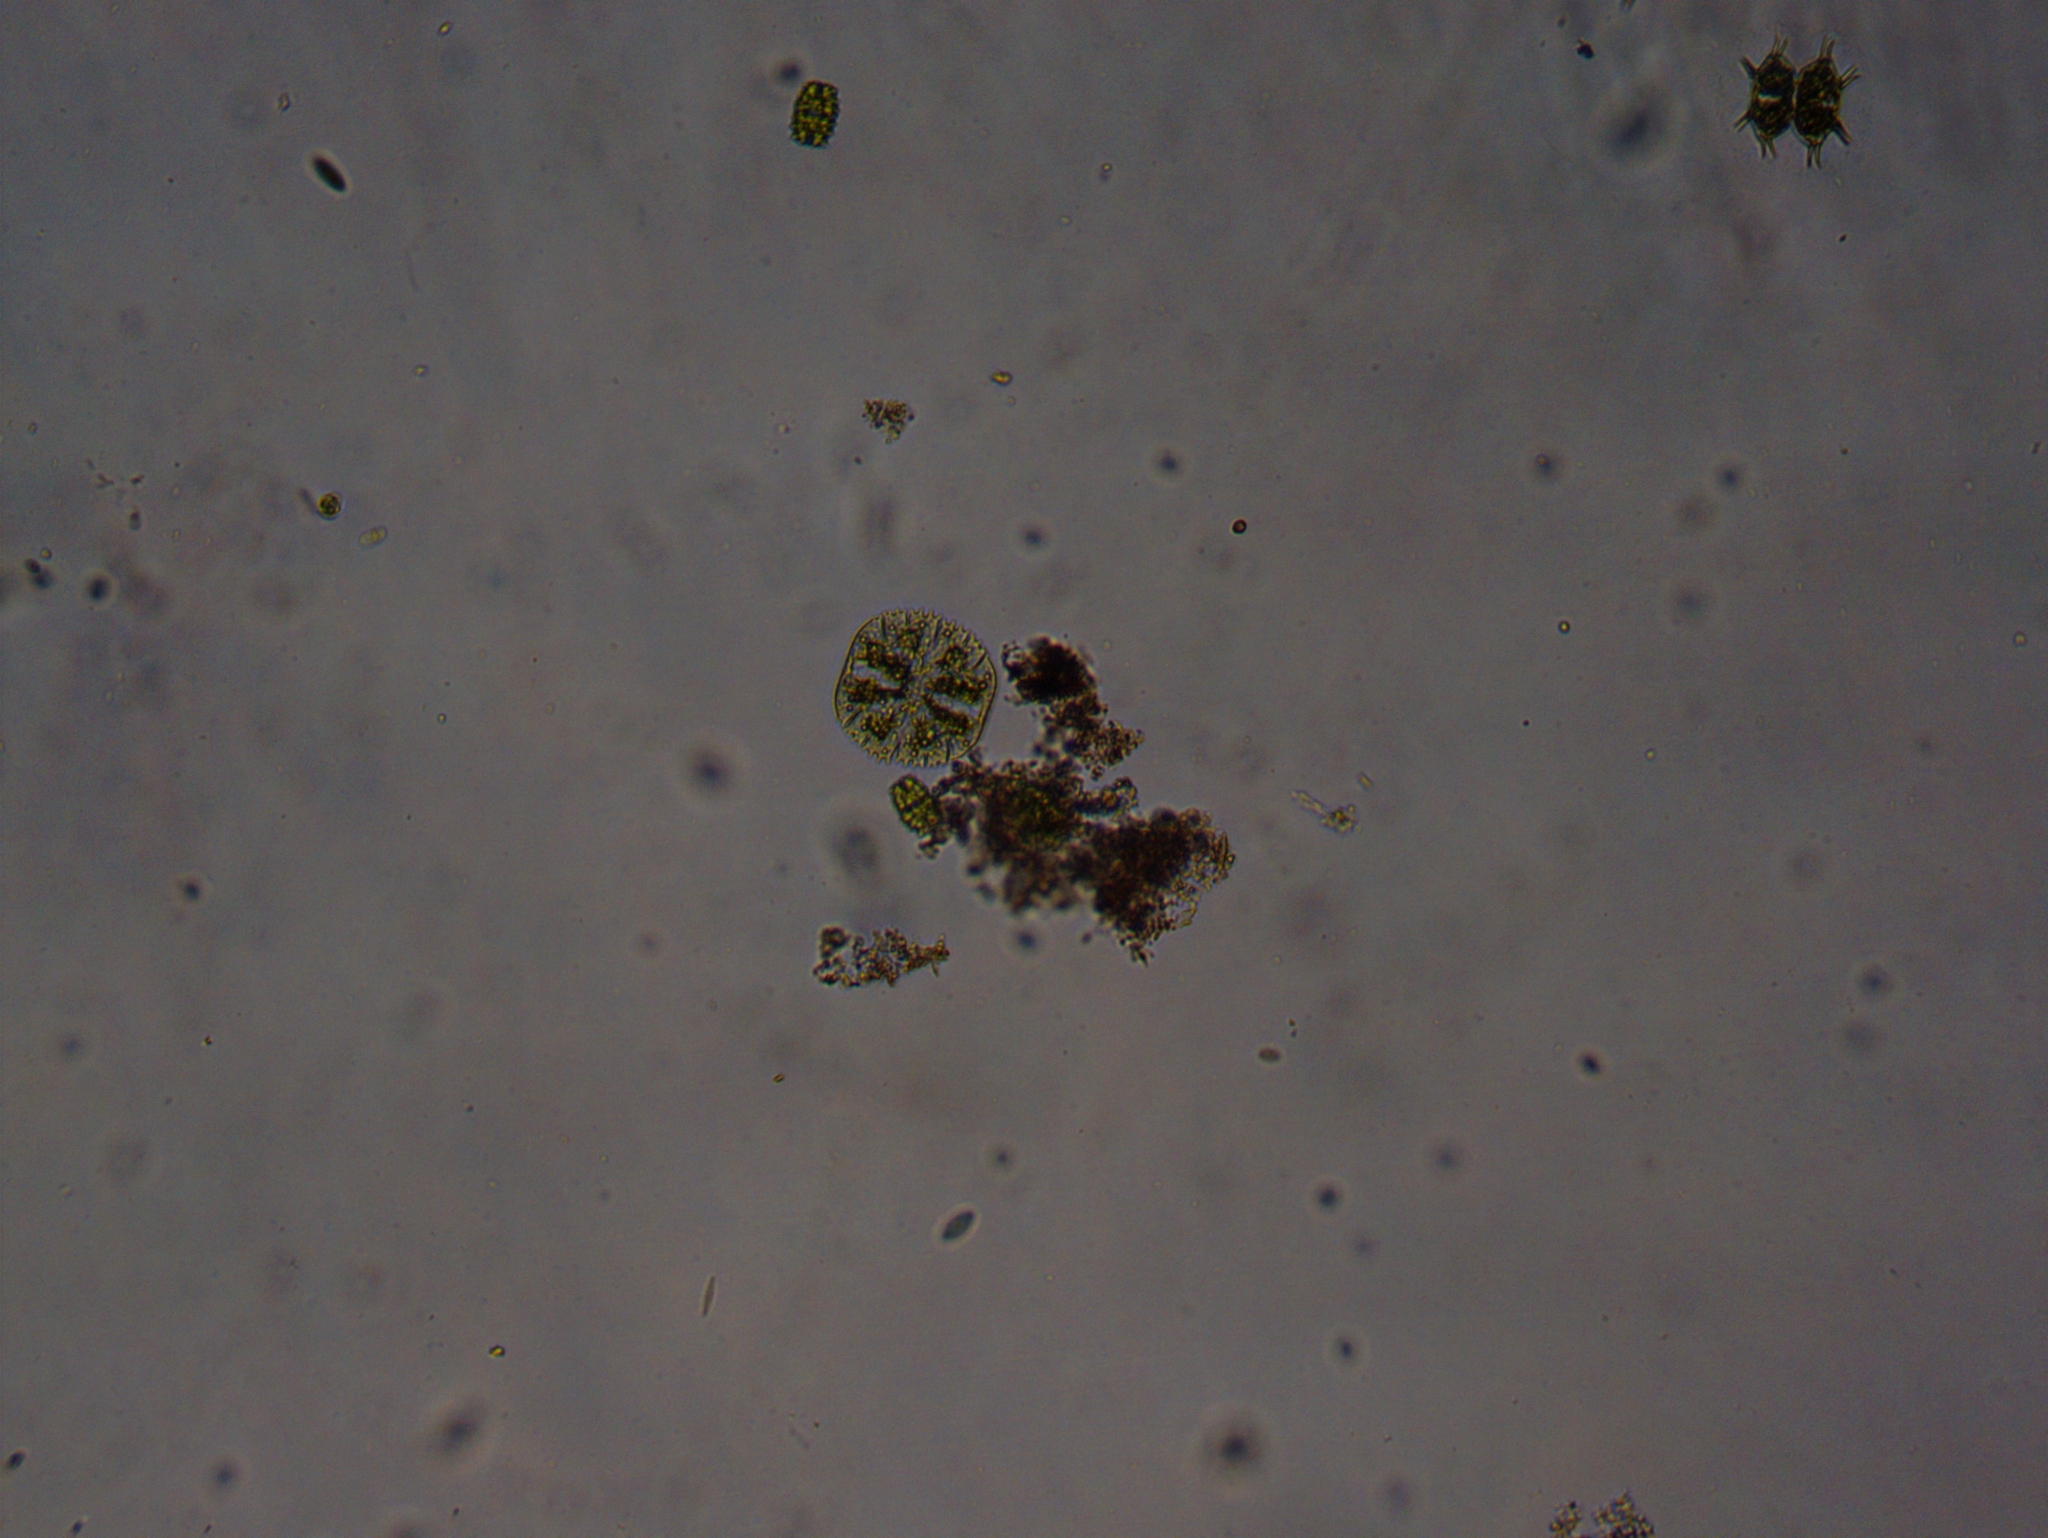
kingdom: Plantae
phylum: Charophyta
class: Conjugatophyceae
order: Desmidiales
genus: Micrasterias
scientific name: Micrasterias truncata
